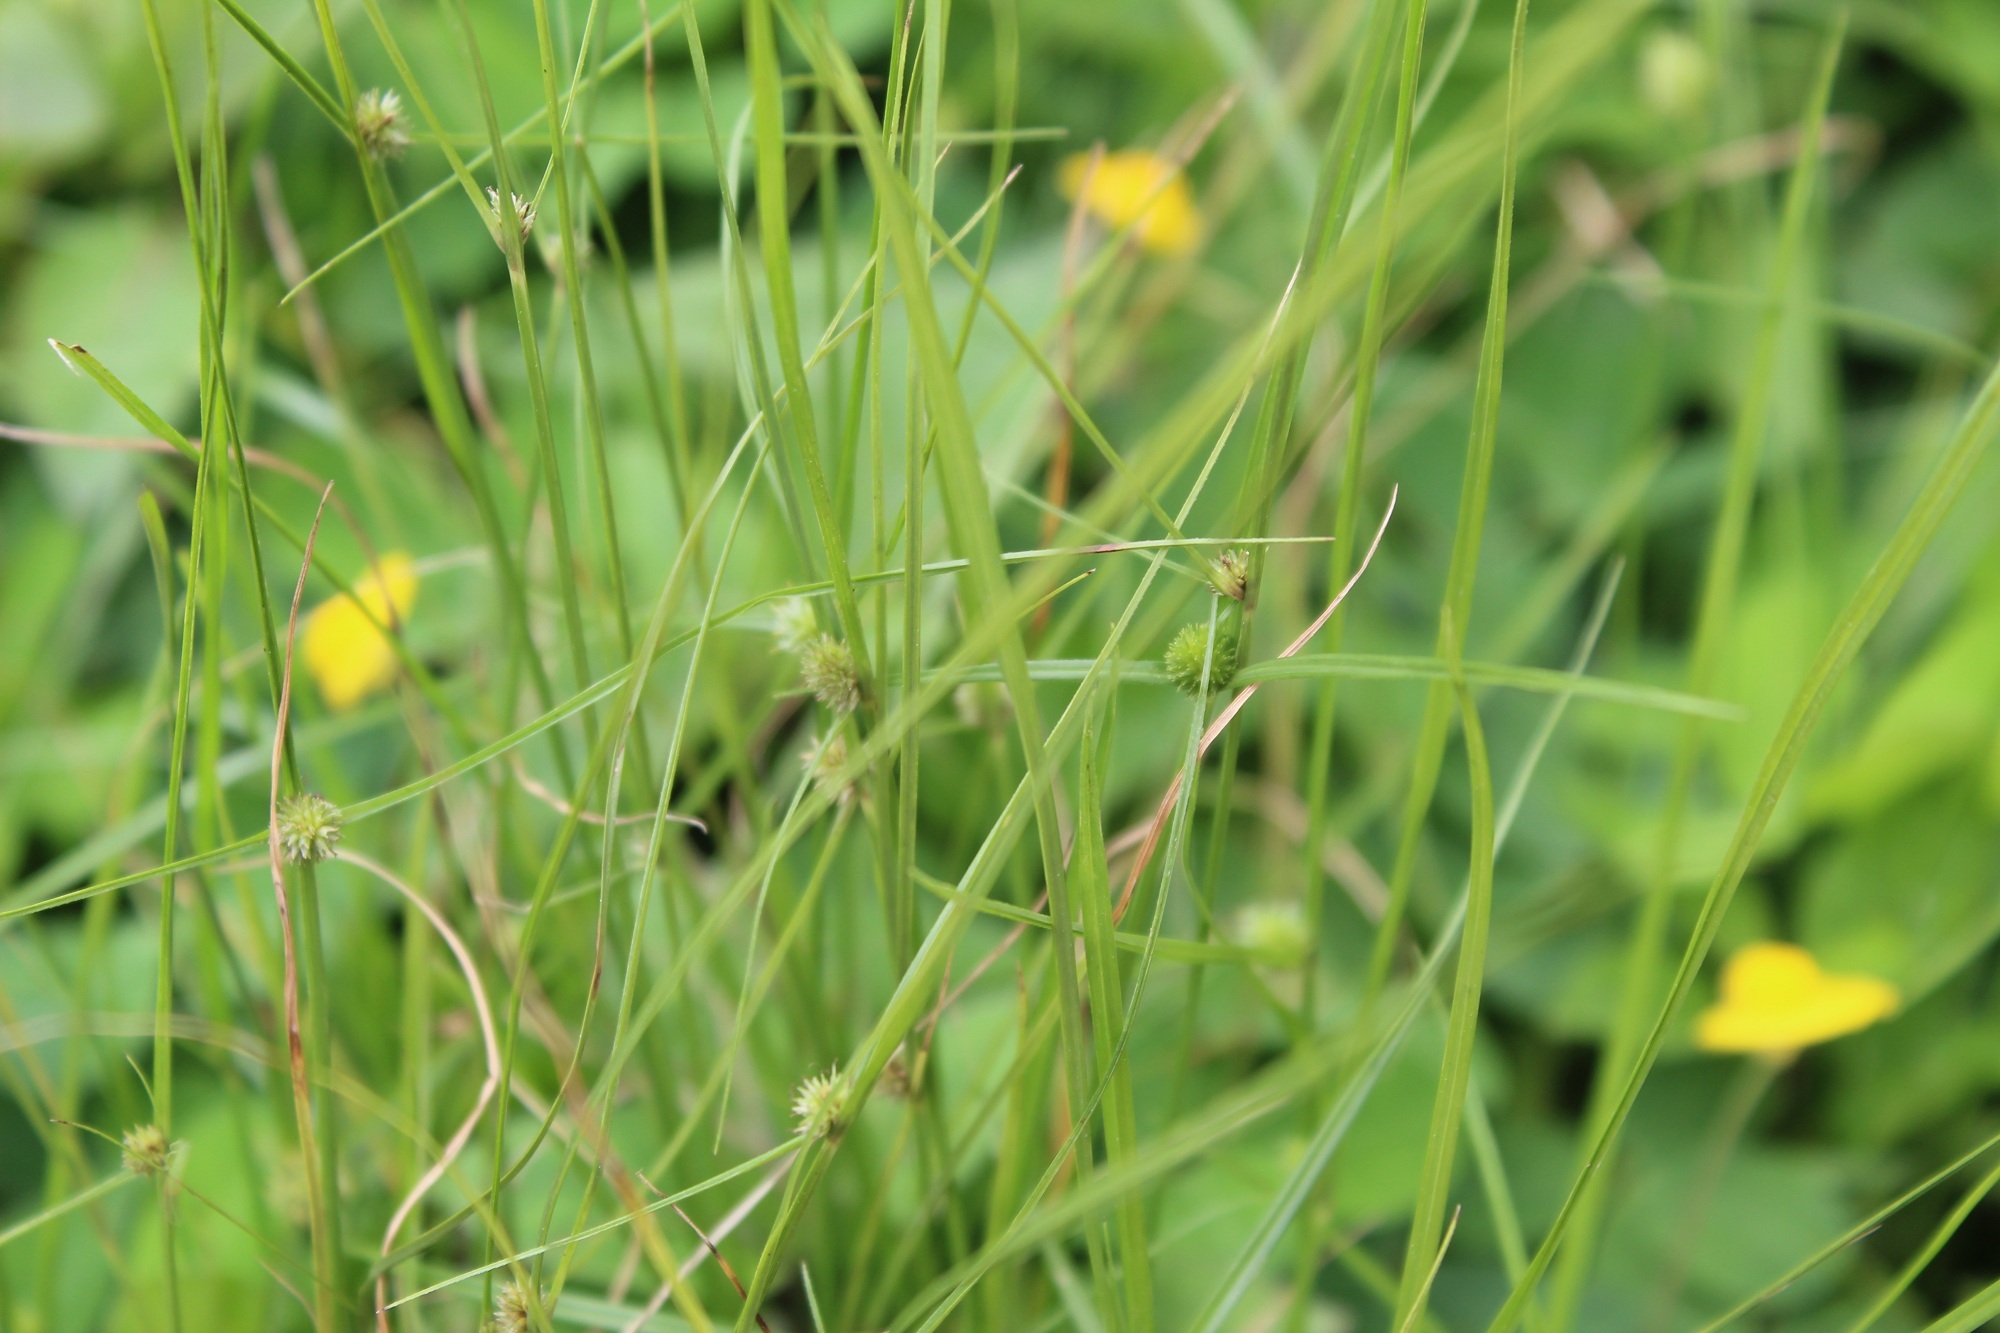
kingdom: Plantae
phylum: Tracheophyta
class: Liliopsida
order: Poales
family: Cyperaceae
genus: Cyperus
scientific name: Cyperus brevifolius
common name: Globe kyllinga
